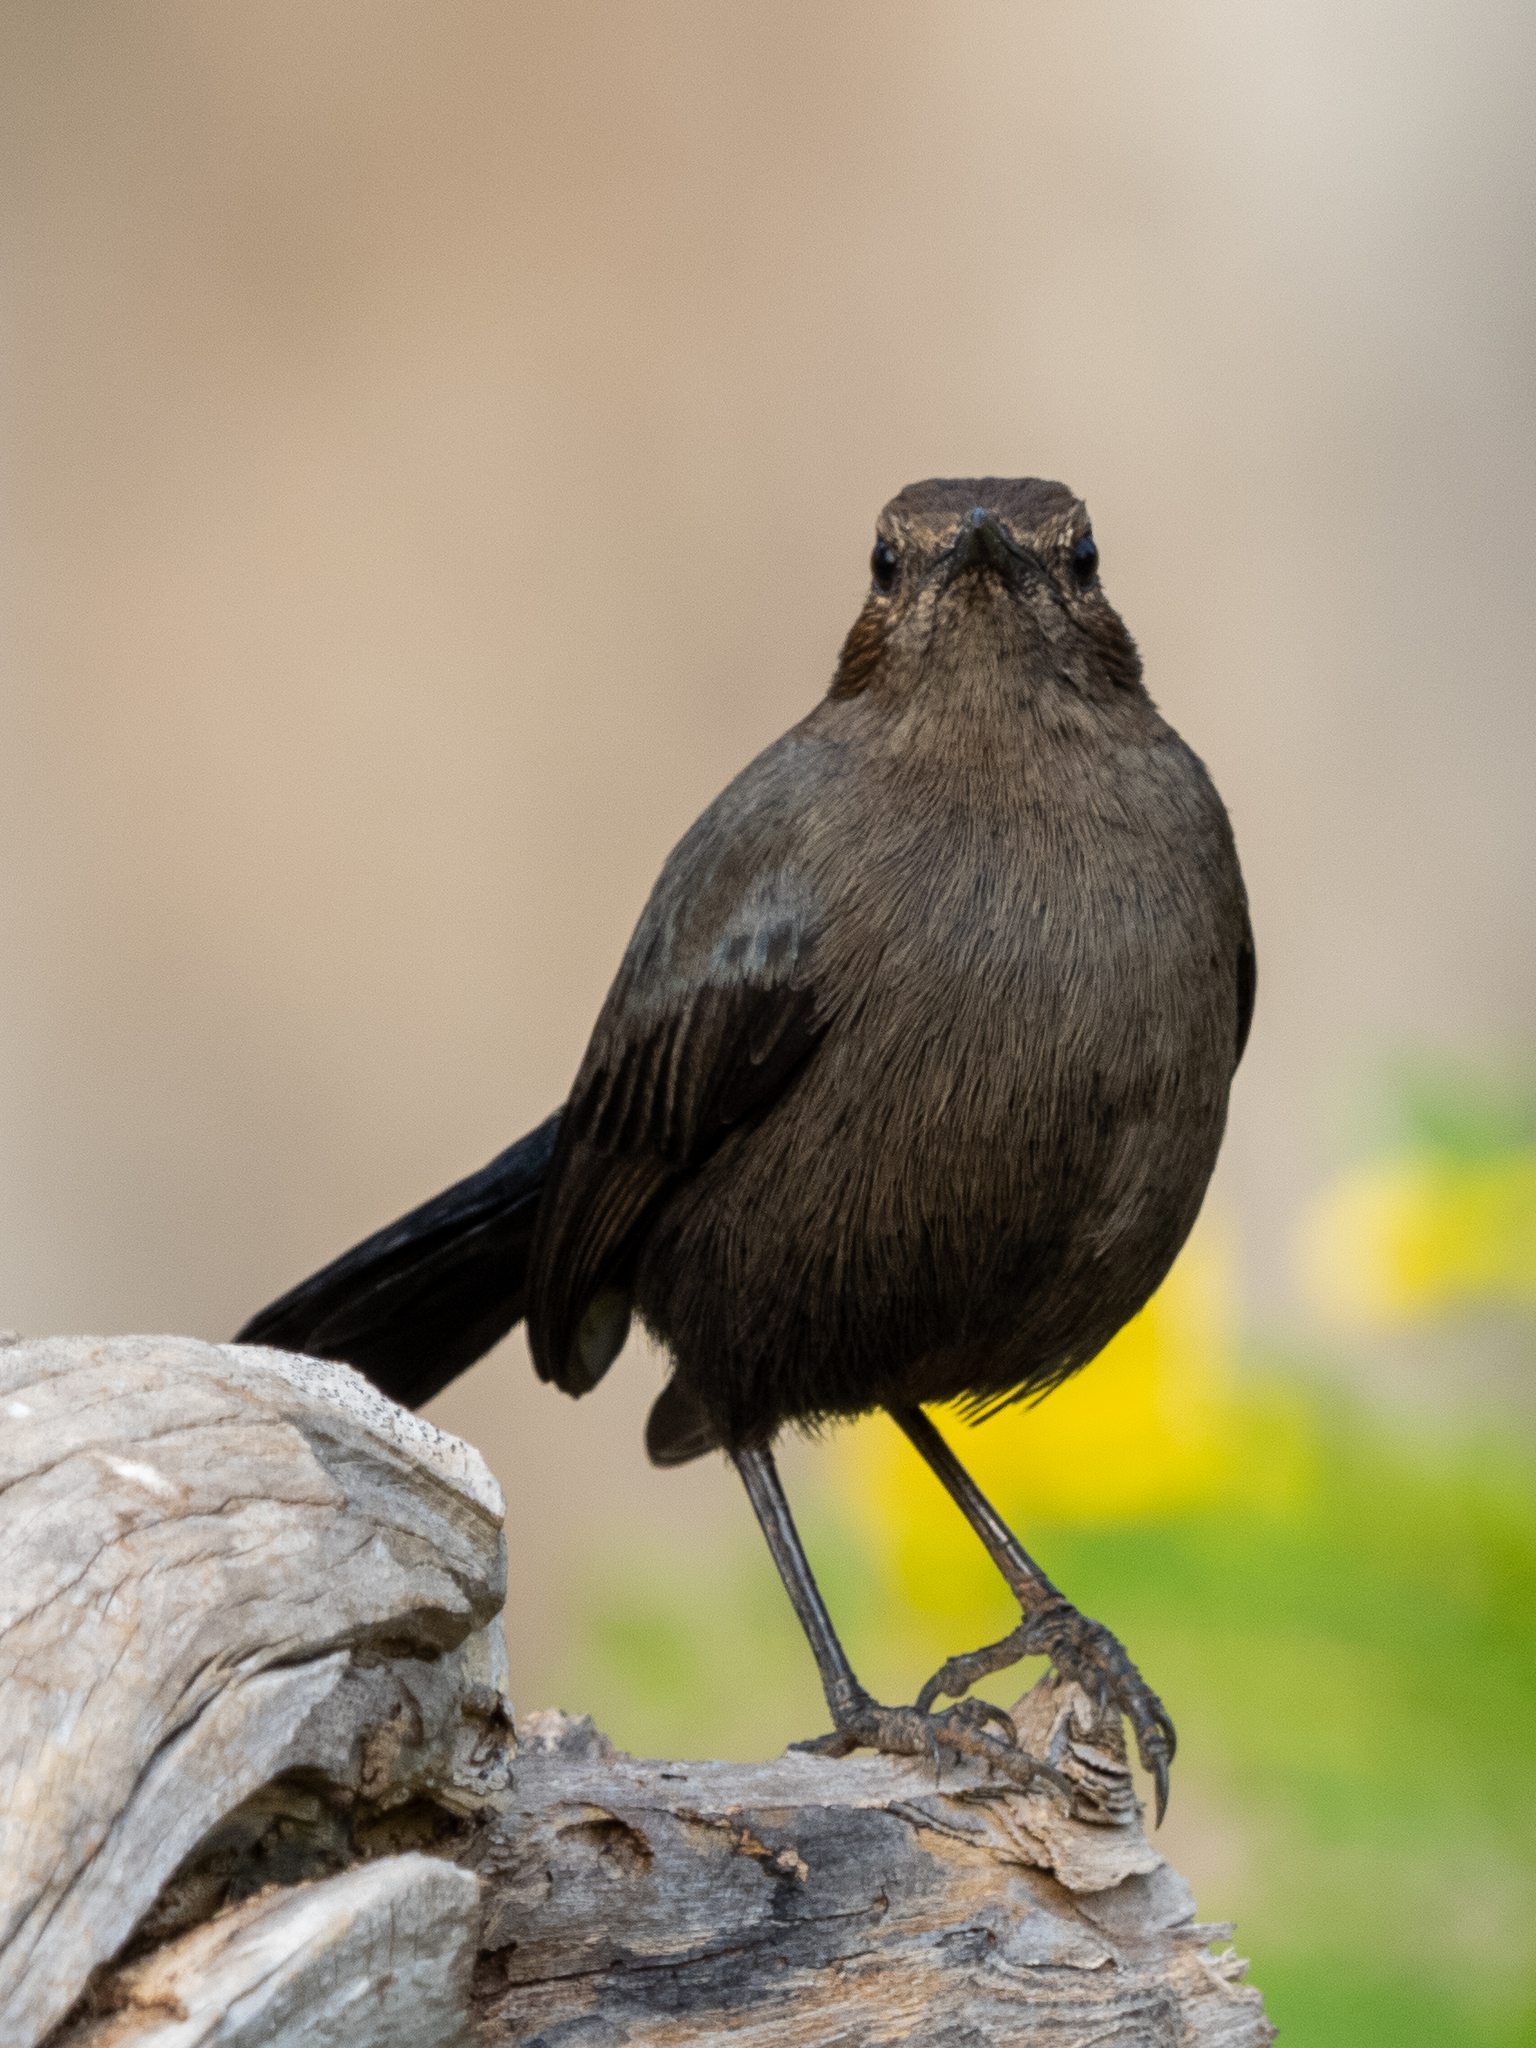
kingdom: Animalia
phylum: Chordata
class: Aves
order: Passeriformes
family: Muscicapidae
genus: Saxicoloides
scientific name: Saxicoloides fulicatus
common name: Indian robin
